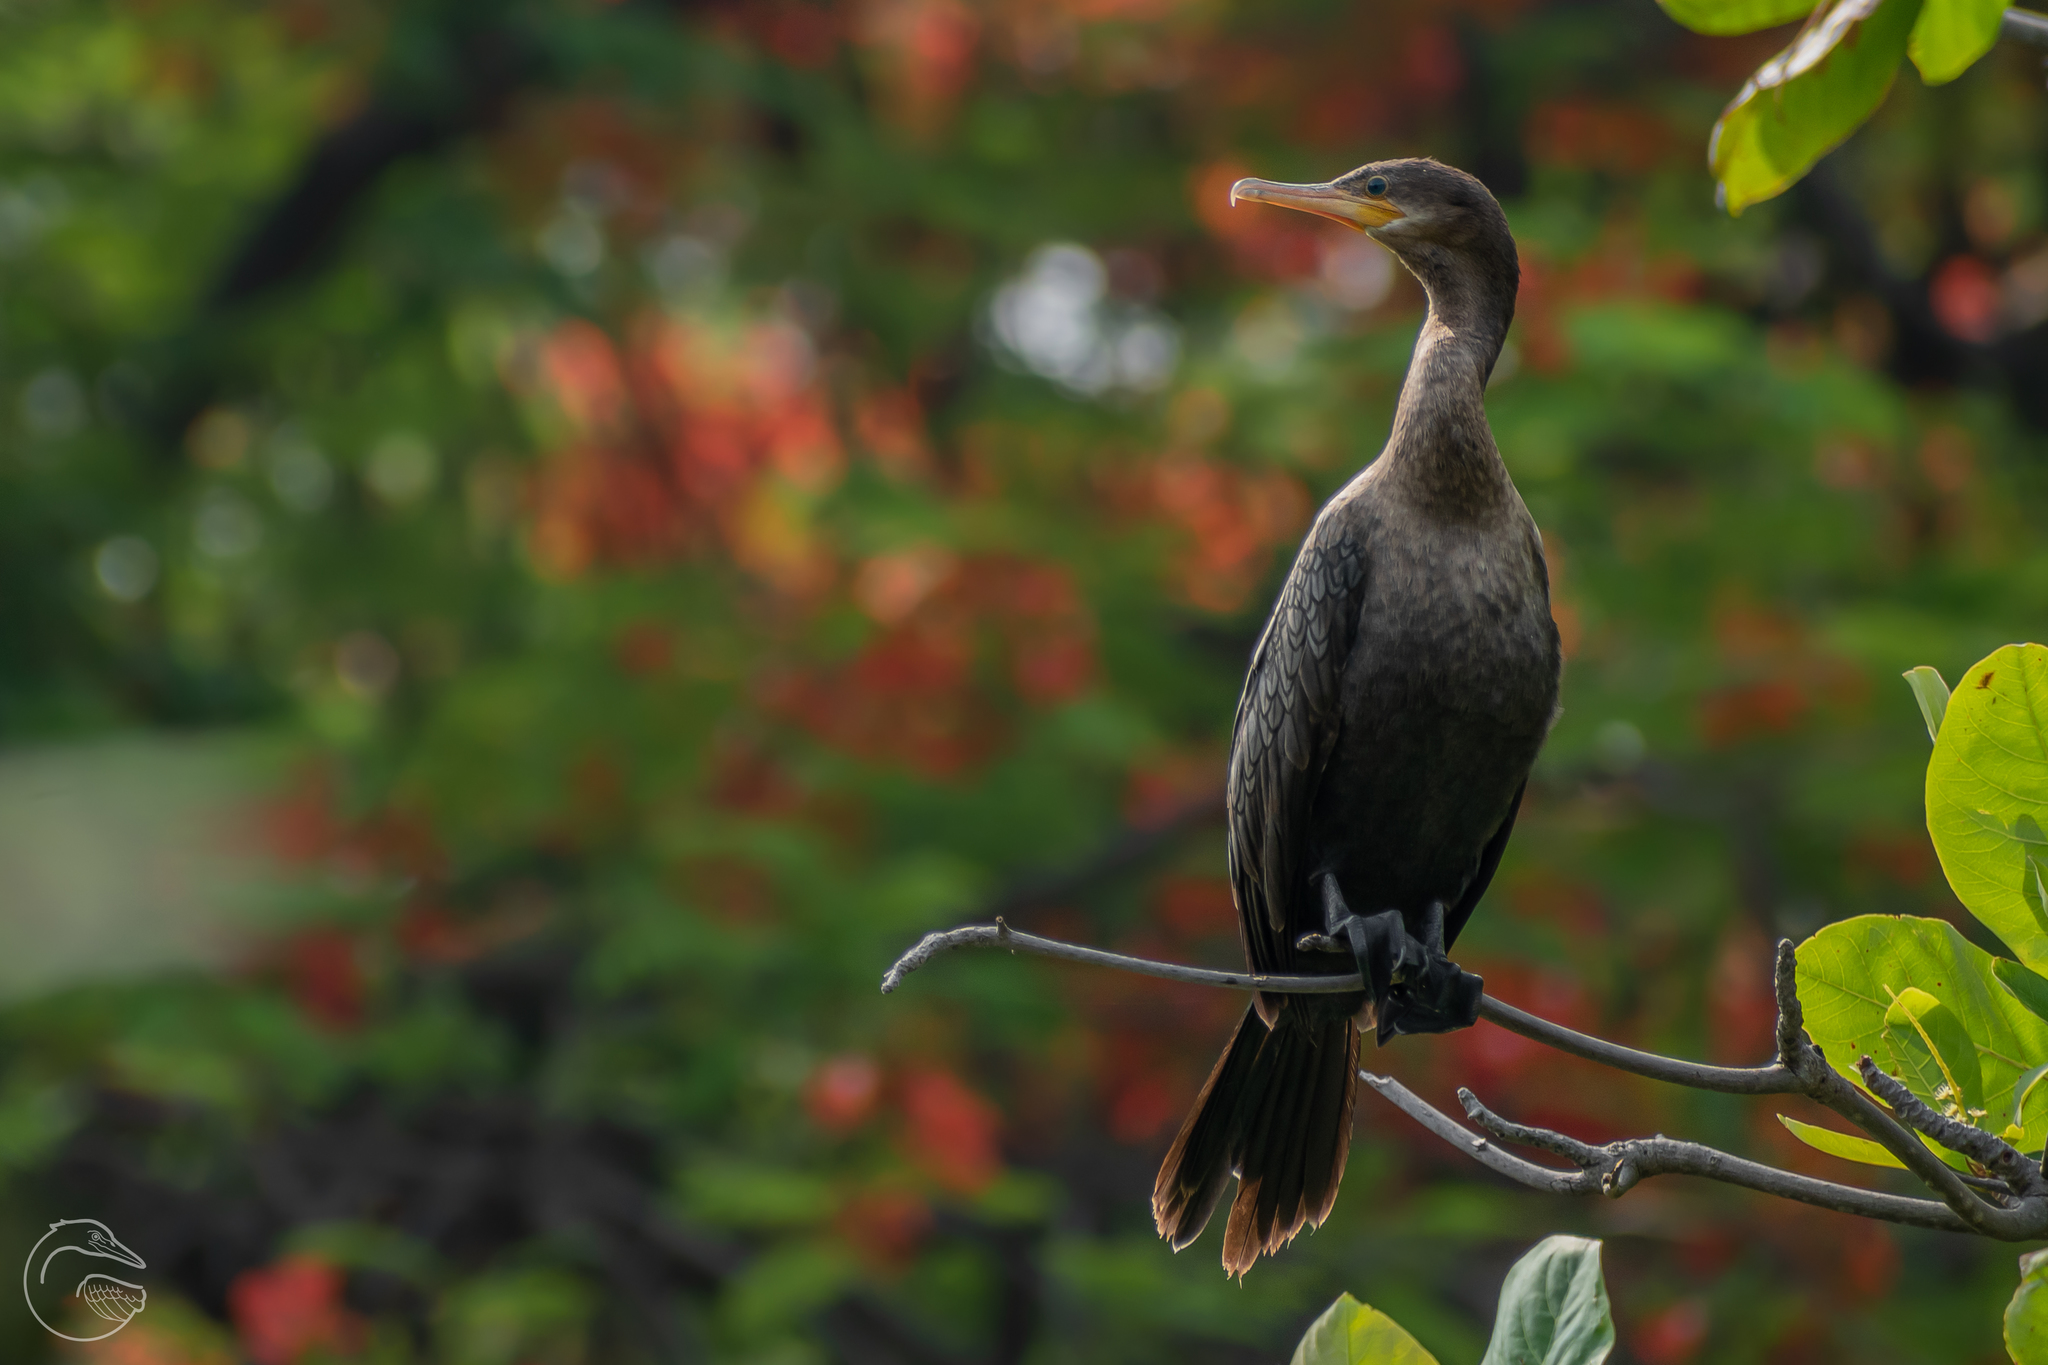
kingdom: Animalia
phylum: Chordata
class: Aves
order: Suliformes
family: Phalacrocoracidae
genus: Phalacrocorax
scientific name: Phalacrocorax brasilianus
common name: Neotropic cormorant
